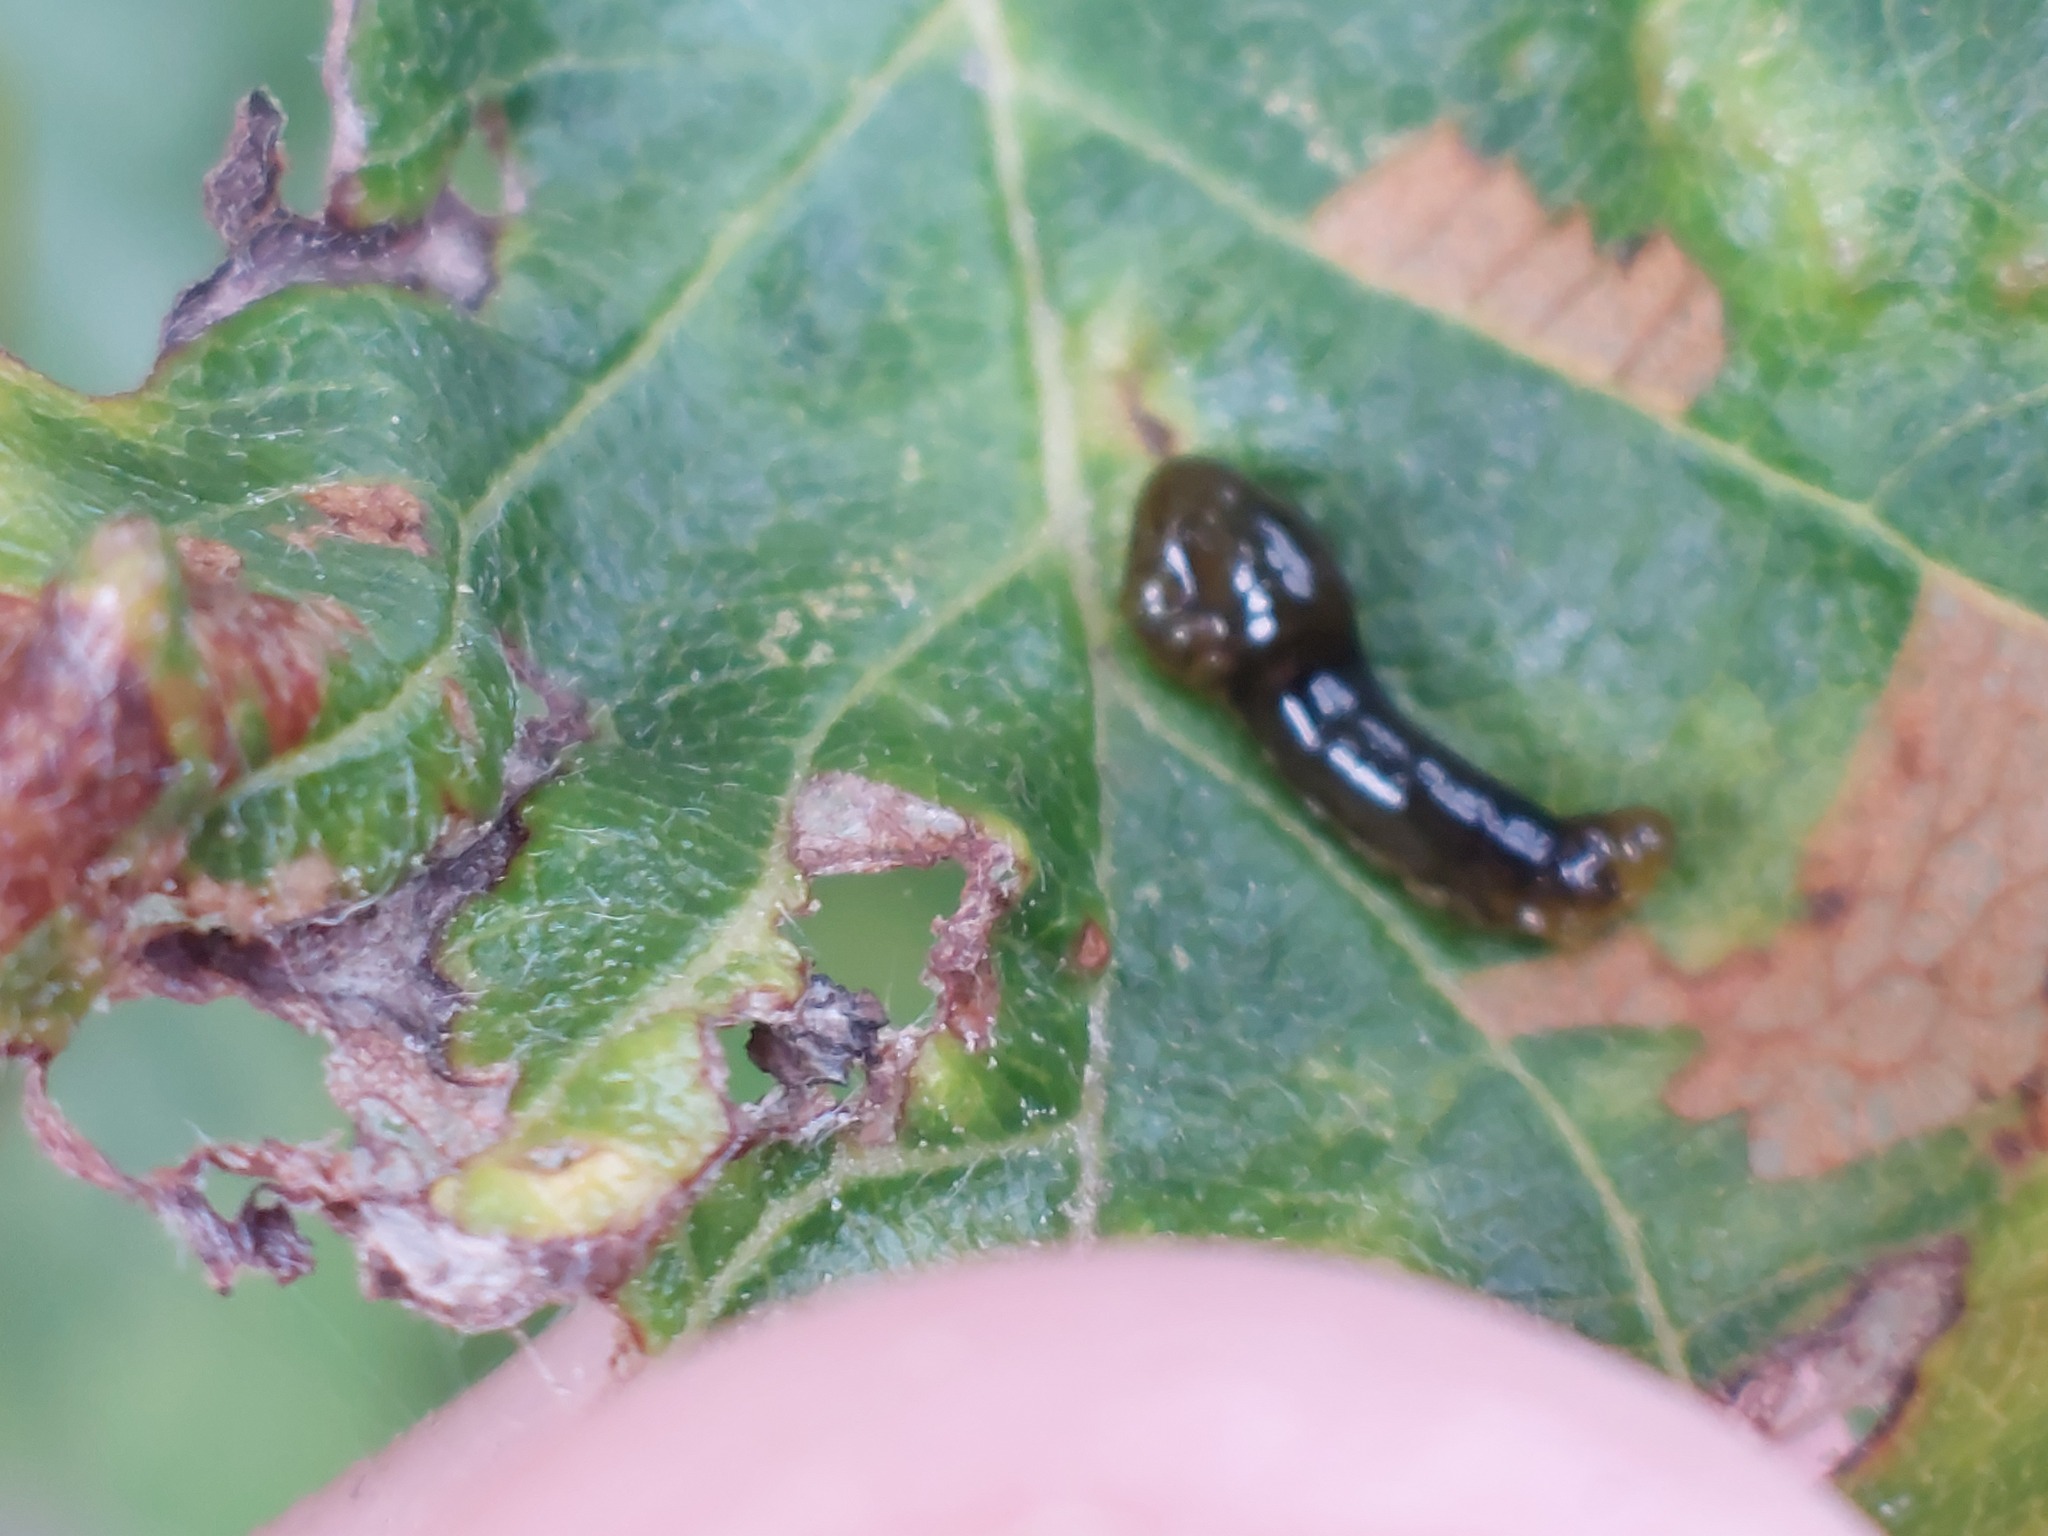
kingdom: Animalia
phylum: Arthropoda
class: Insecta
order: Hymenoptera
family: Tenthredinidae
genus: Caliroa
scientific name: Caliroa cerasi
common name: Pear sawfly
